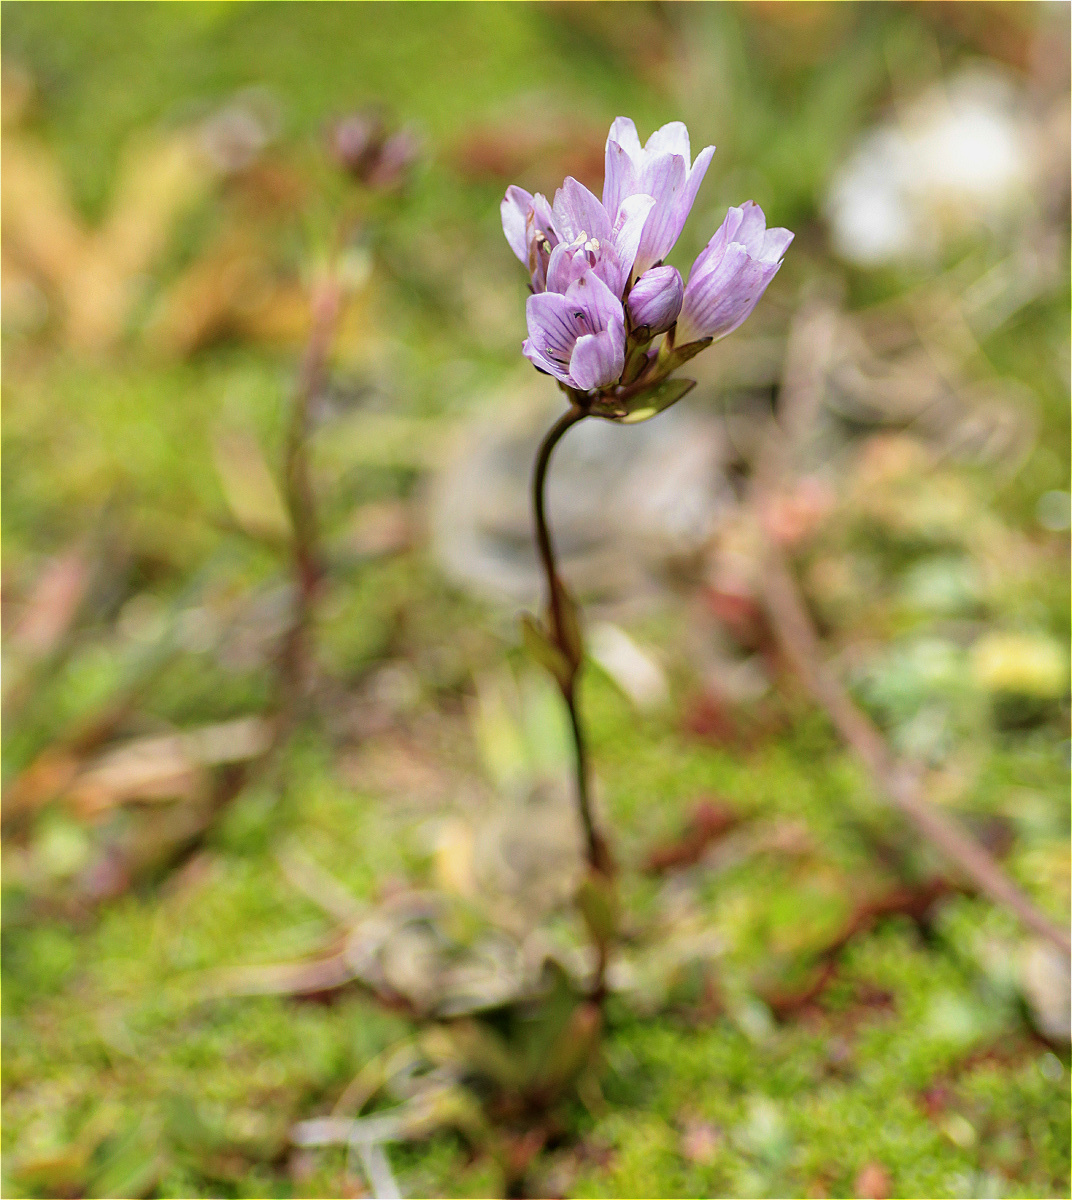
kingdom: Plantae
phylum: Tracheophyta
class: Magnoliopsida
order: Gentianales
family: Gentianaceae
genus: Gentianella
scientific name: Gentianella corymbosa
